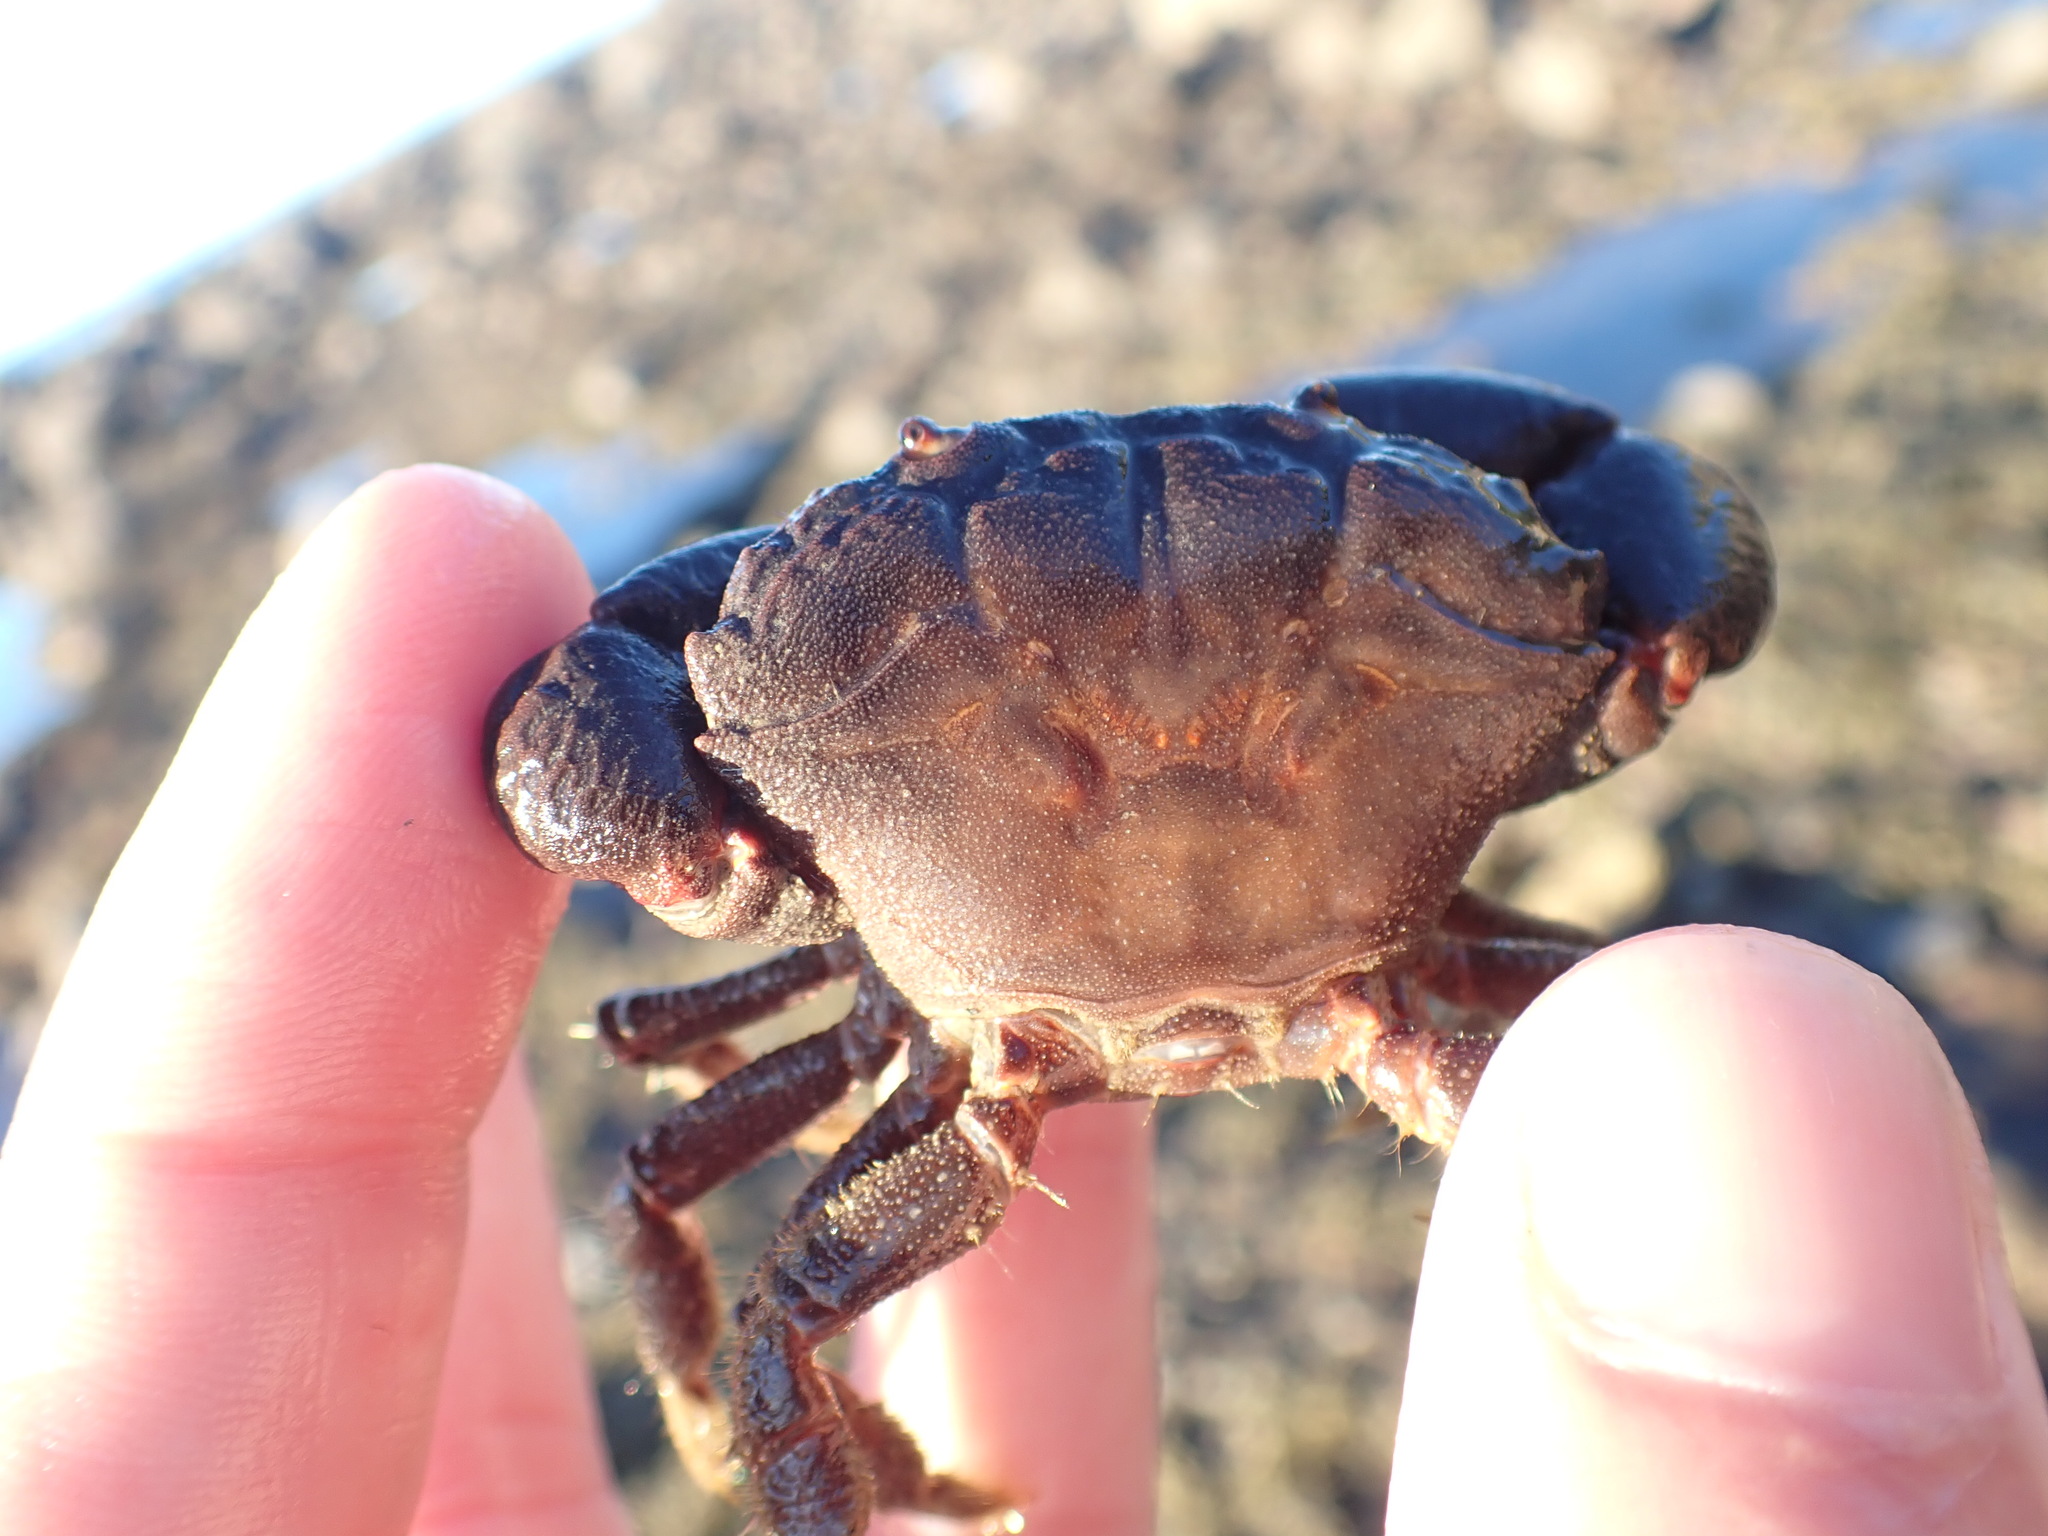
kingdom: Animalia
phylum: Arthropoda
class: Malacostraca
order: Decapoda
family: Oziidae
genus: Ozius
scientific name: Ozius deplanatus
